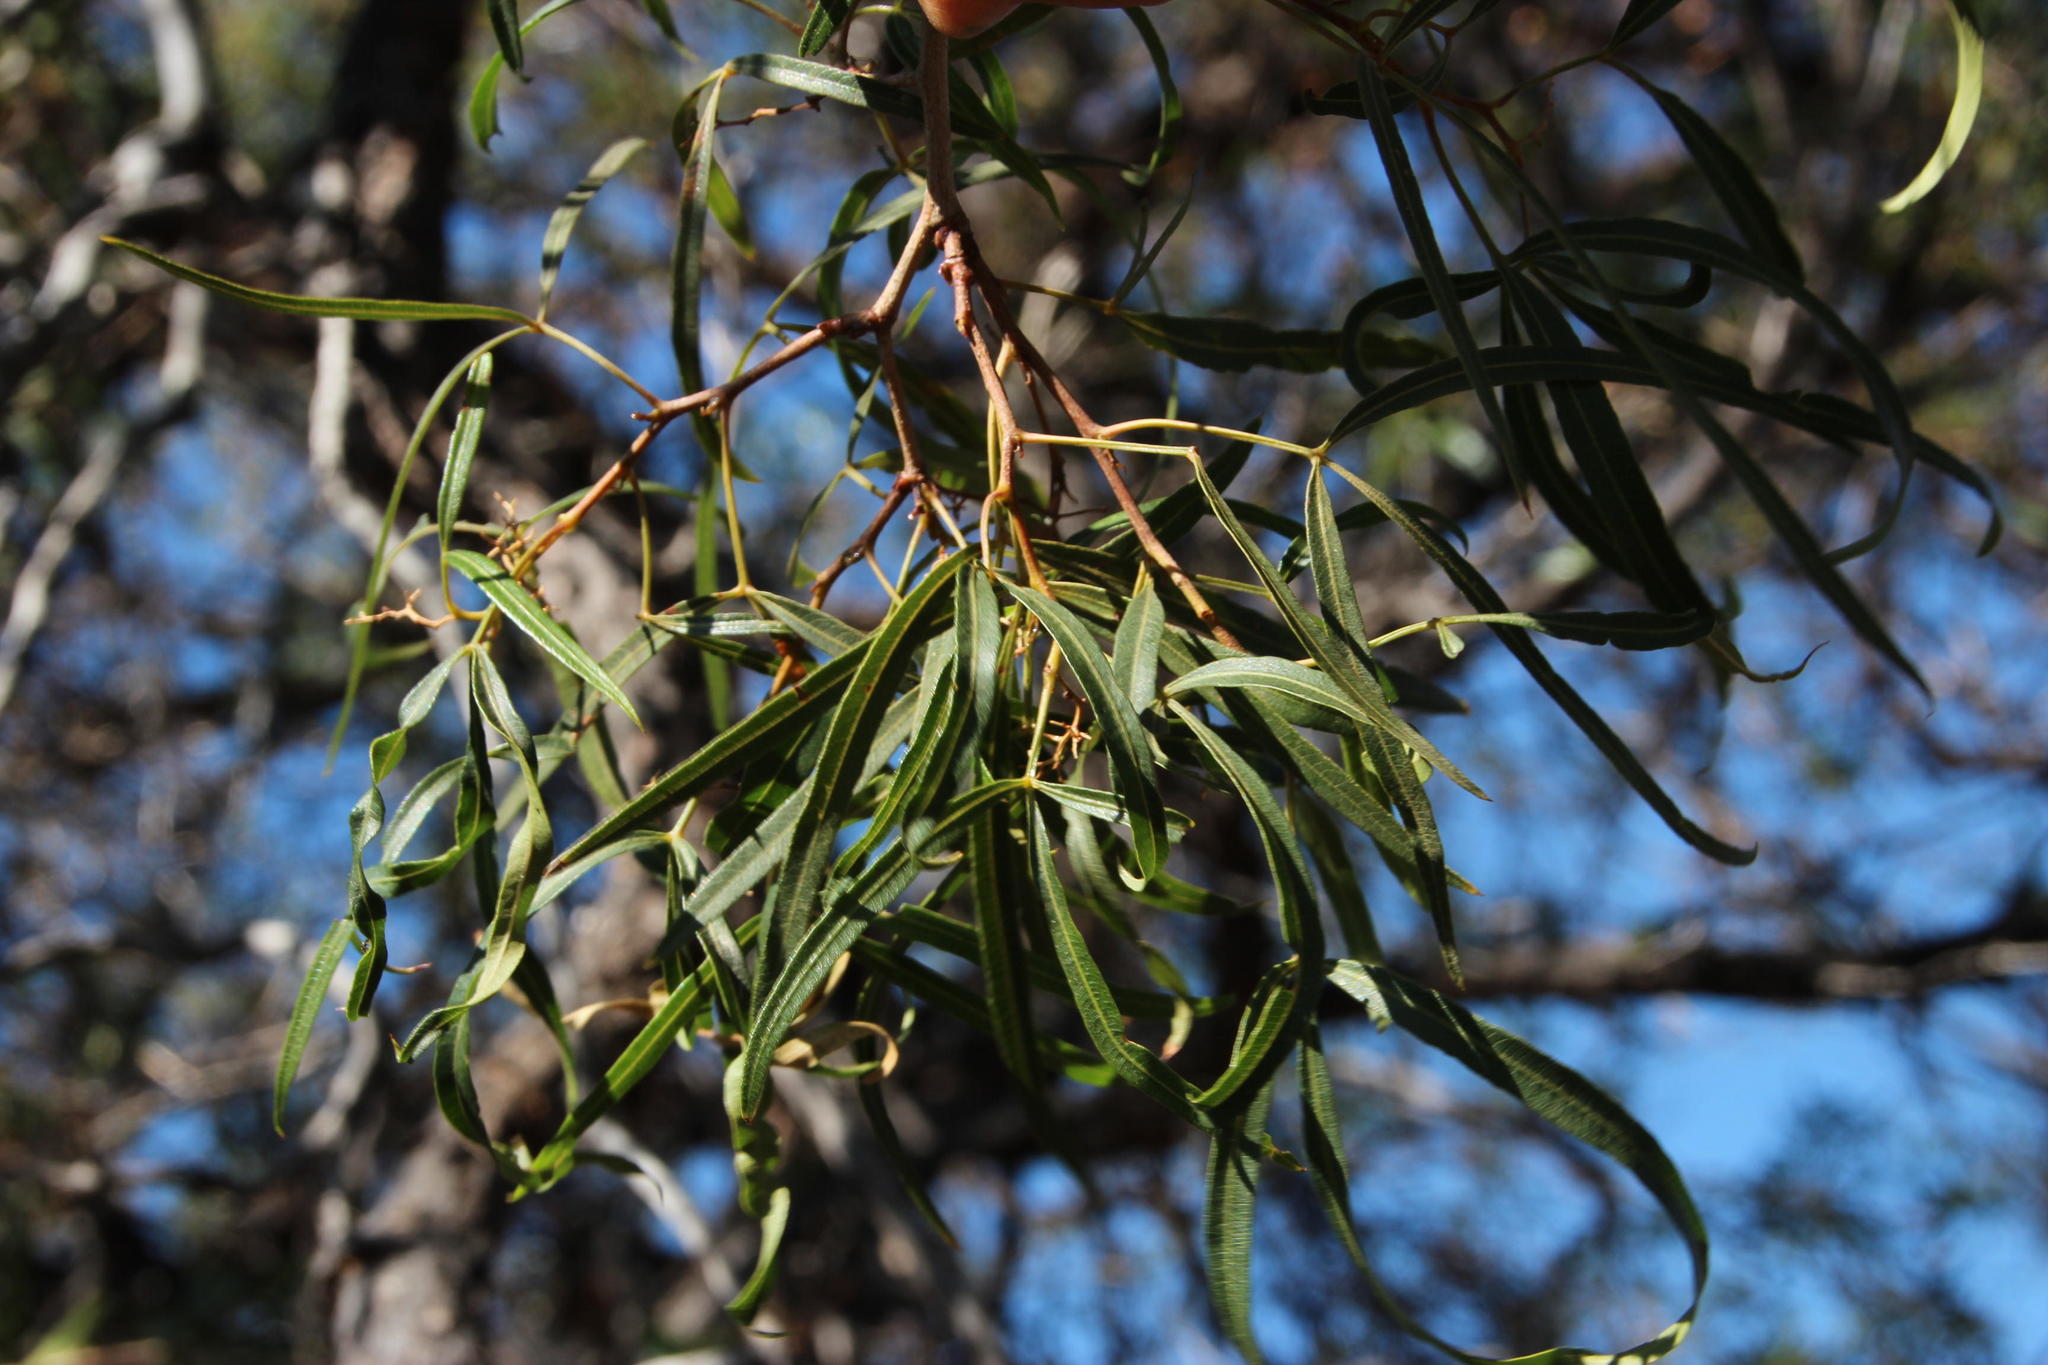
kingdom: Plantae
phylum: Tracheophyta
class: Magnoliopsida
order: Sapindales
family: Anacardiaceae
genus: Searsia
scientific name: Searsia lancea
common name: Cashew
